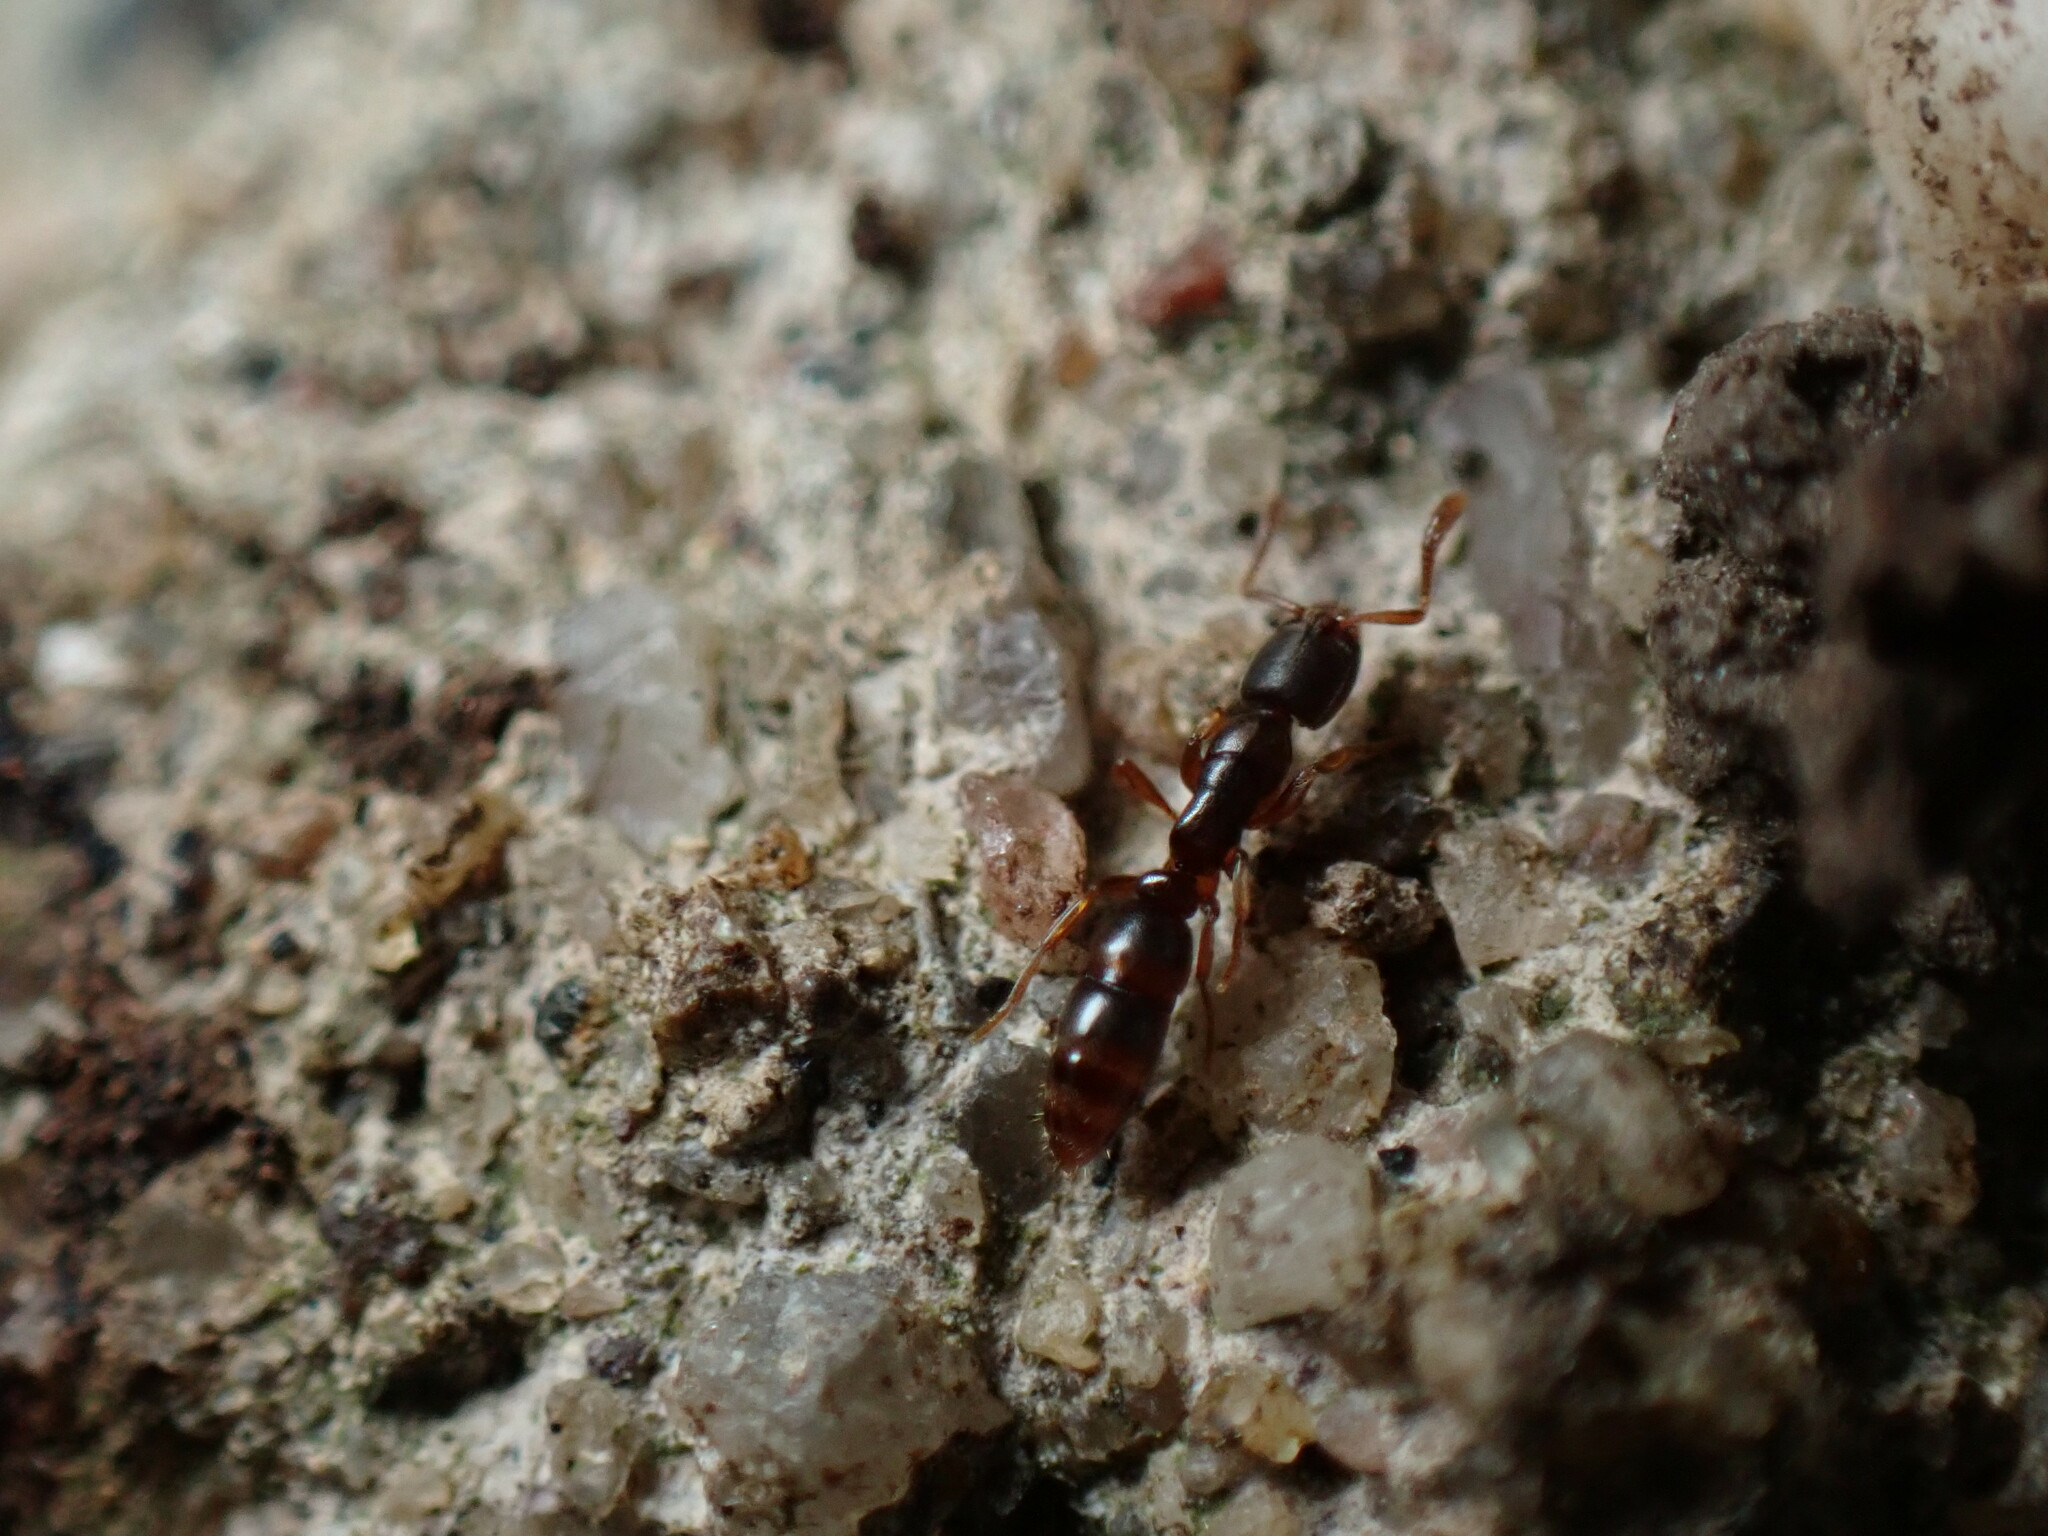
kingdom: Animalia
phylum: Arthropoda
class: Insecta
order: Hymenoptera
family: Formicidae
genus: Ponera
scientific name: Ponera pennsylvanica
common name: Pennsylvania ponera
